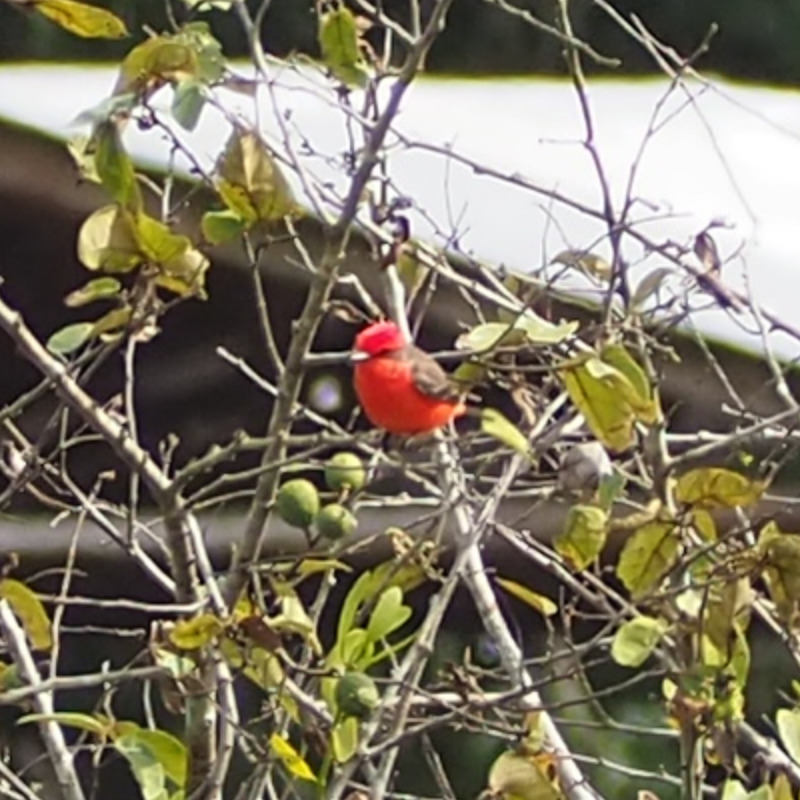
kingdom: Animalia
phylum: Chordata
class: Aves
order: Passeriformes
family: Tyrannidae
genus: Pyrocephalus
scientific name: Pyrocephalus rubinus
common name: Vermilion flycatcher
